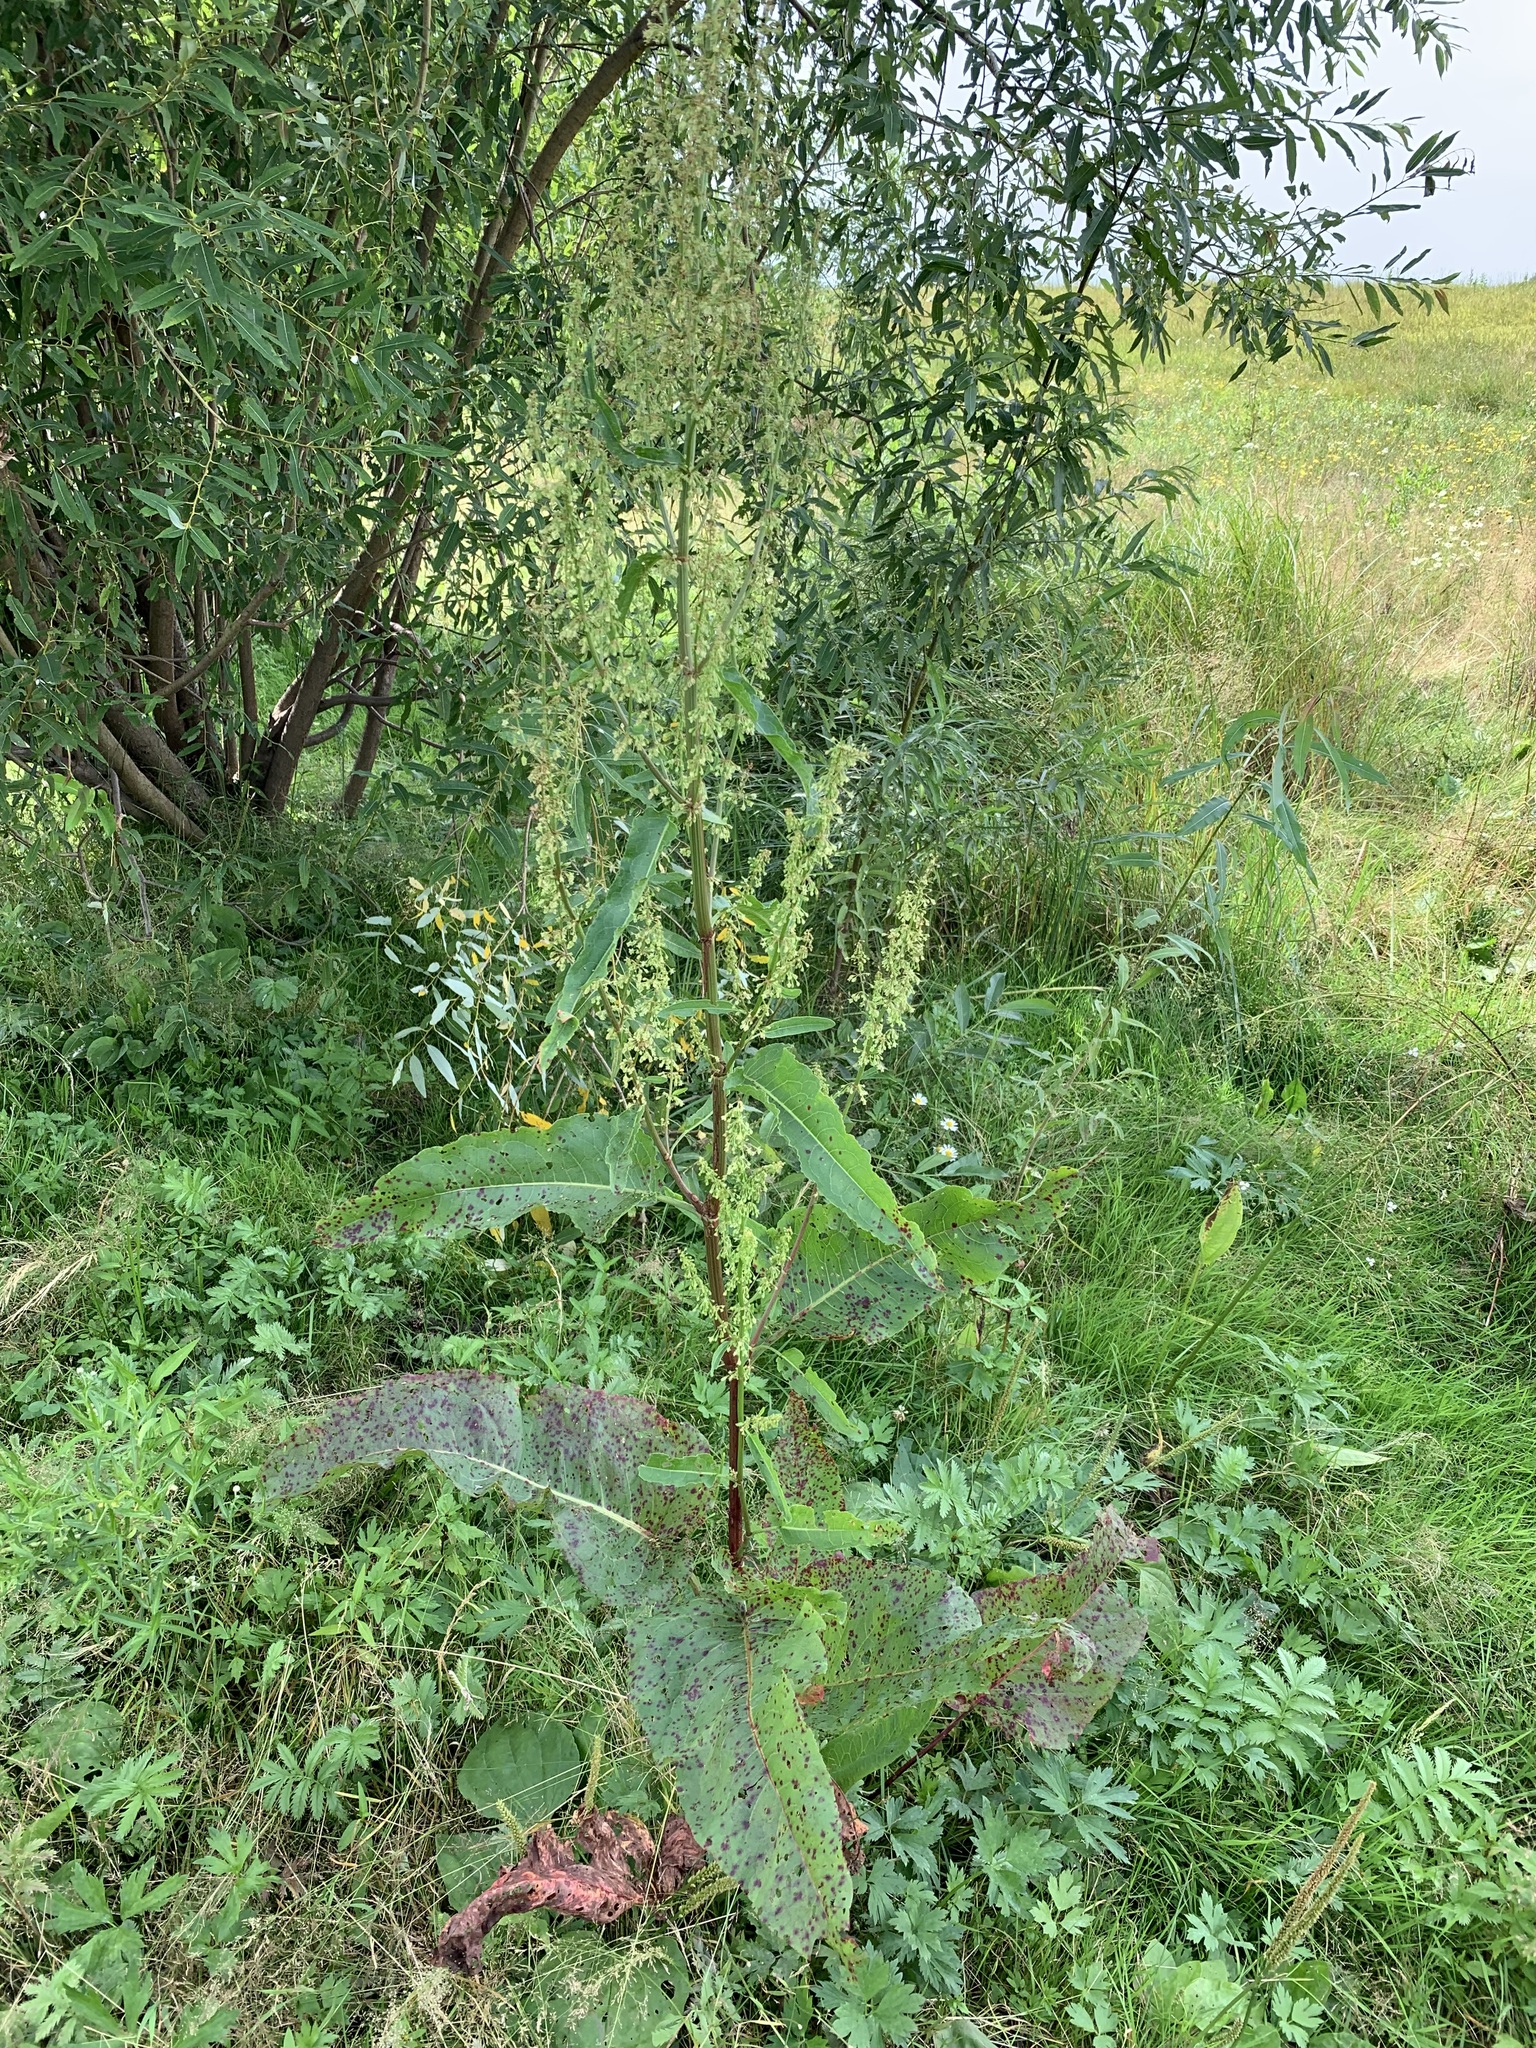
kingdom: Plantae
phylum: Tracheophyta
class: Magnoliopsida
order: Caryophyllales
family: Polygonaceae
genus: Rumex
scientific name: Rumex aquaticus
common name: Scottish dock
